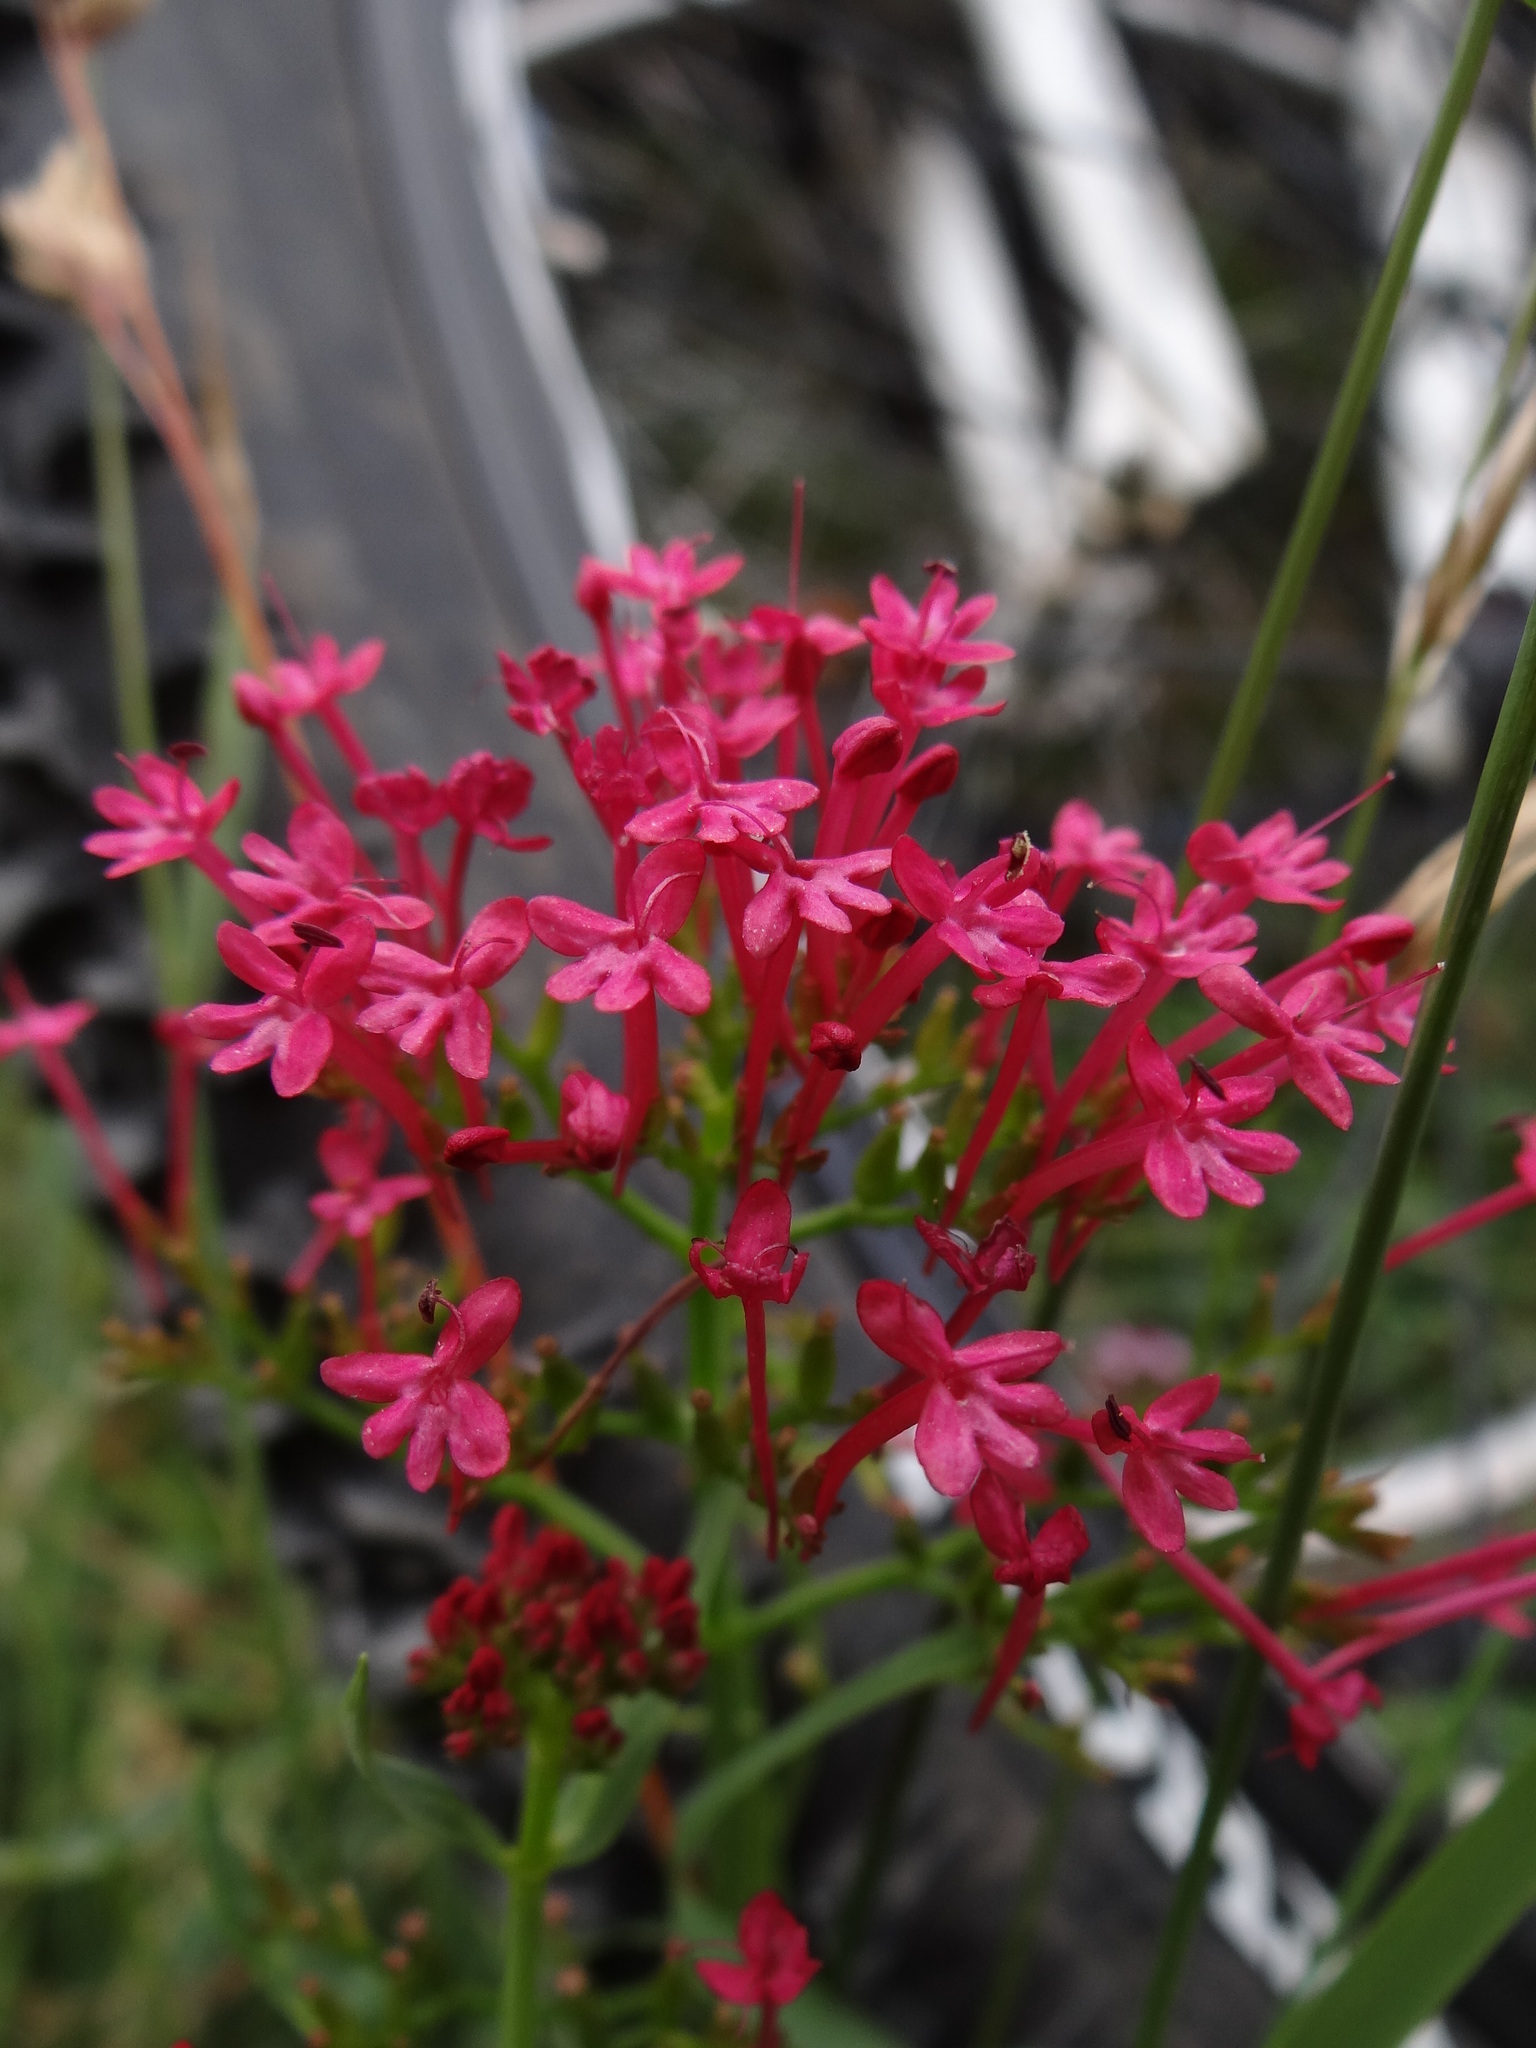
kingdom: Plantae
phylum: Tracheophyta
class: Magnoliopsida
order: Dipsacales
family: Caprifoliaceae
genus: Centranthus
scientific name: Centranthus ruber
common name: Red valerian
